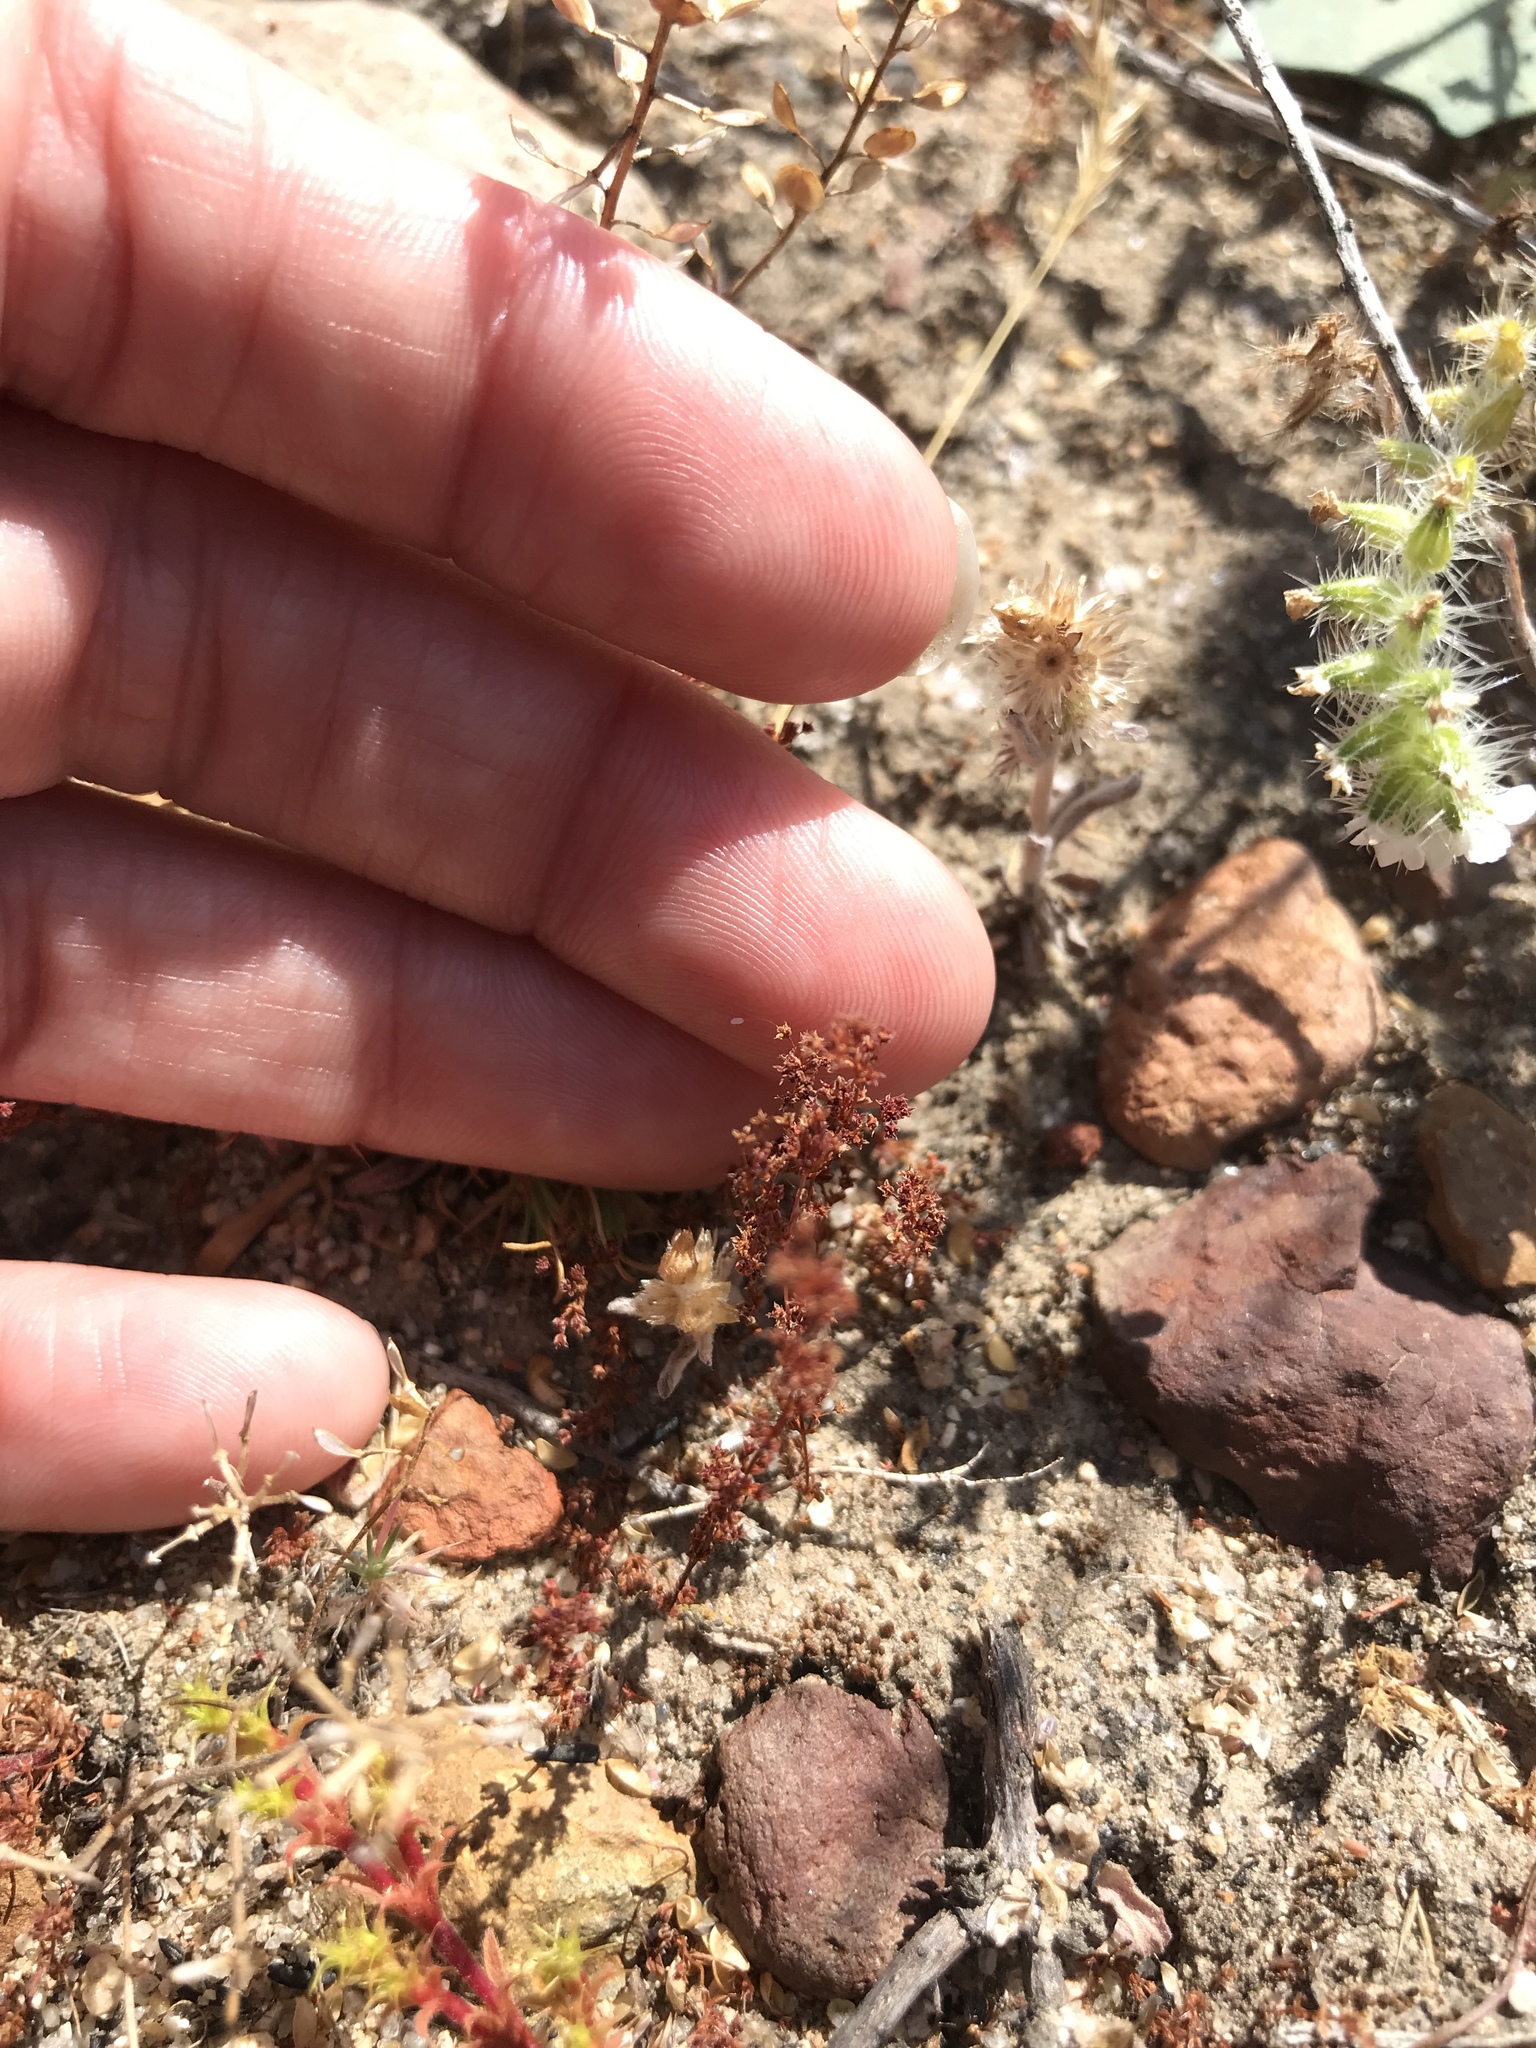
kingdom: Plantae
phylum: Tracheophyta
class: Magnoliopsida
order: Saxifragales
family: Crassulaceae
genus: Crassula
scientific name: Crassula connata
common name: Erect pygmyweed
